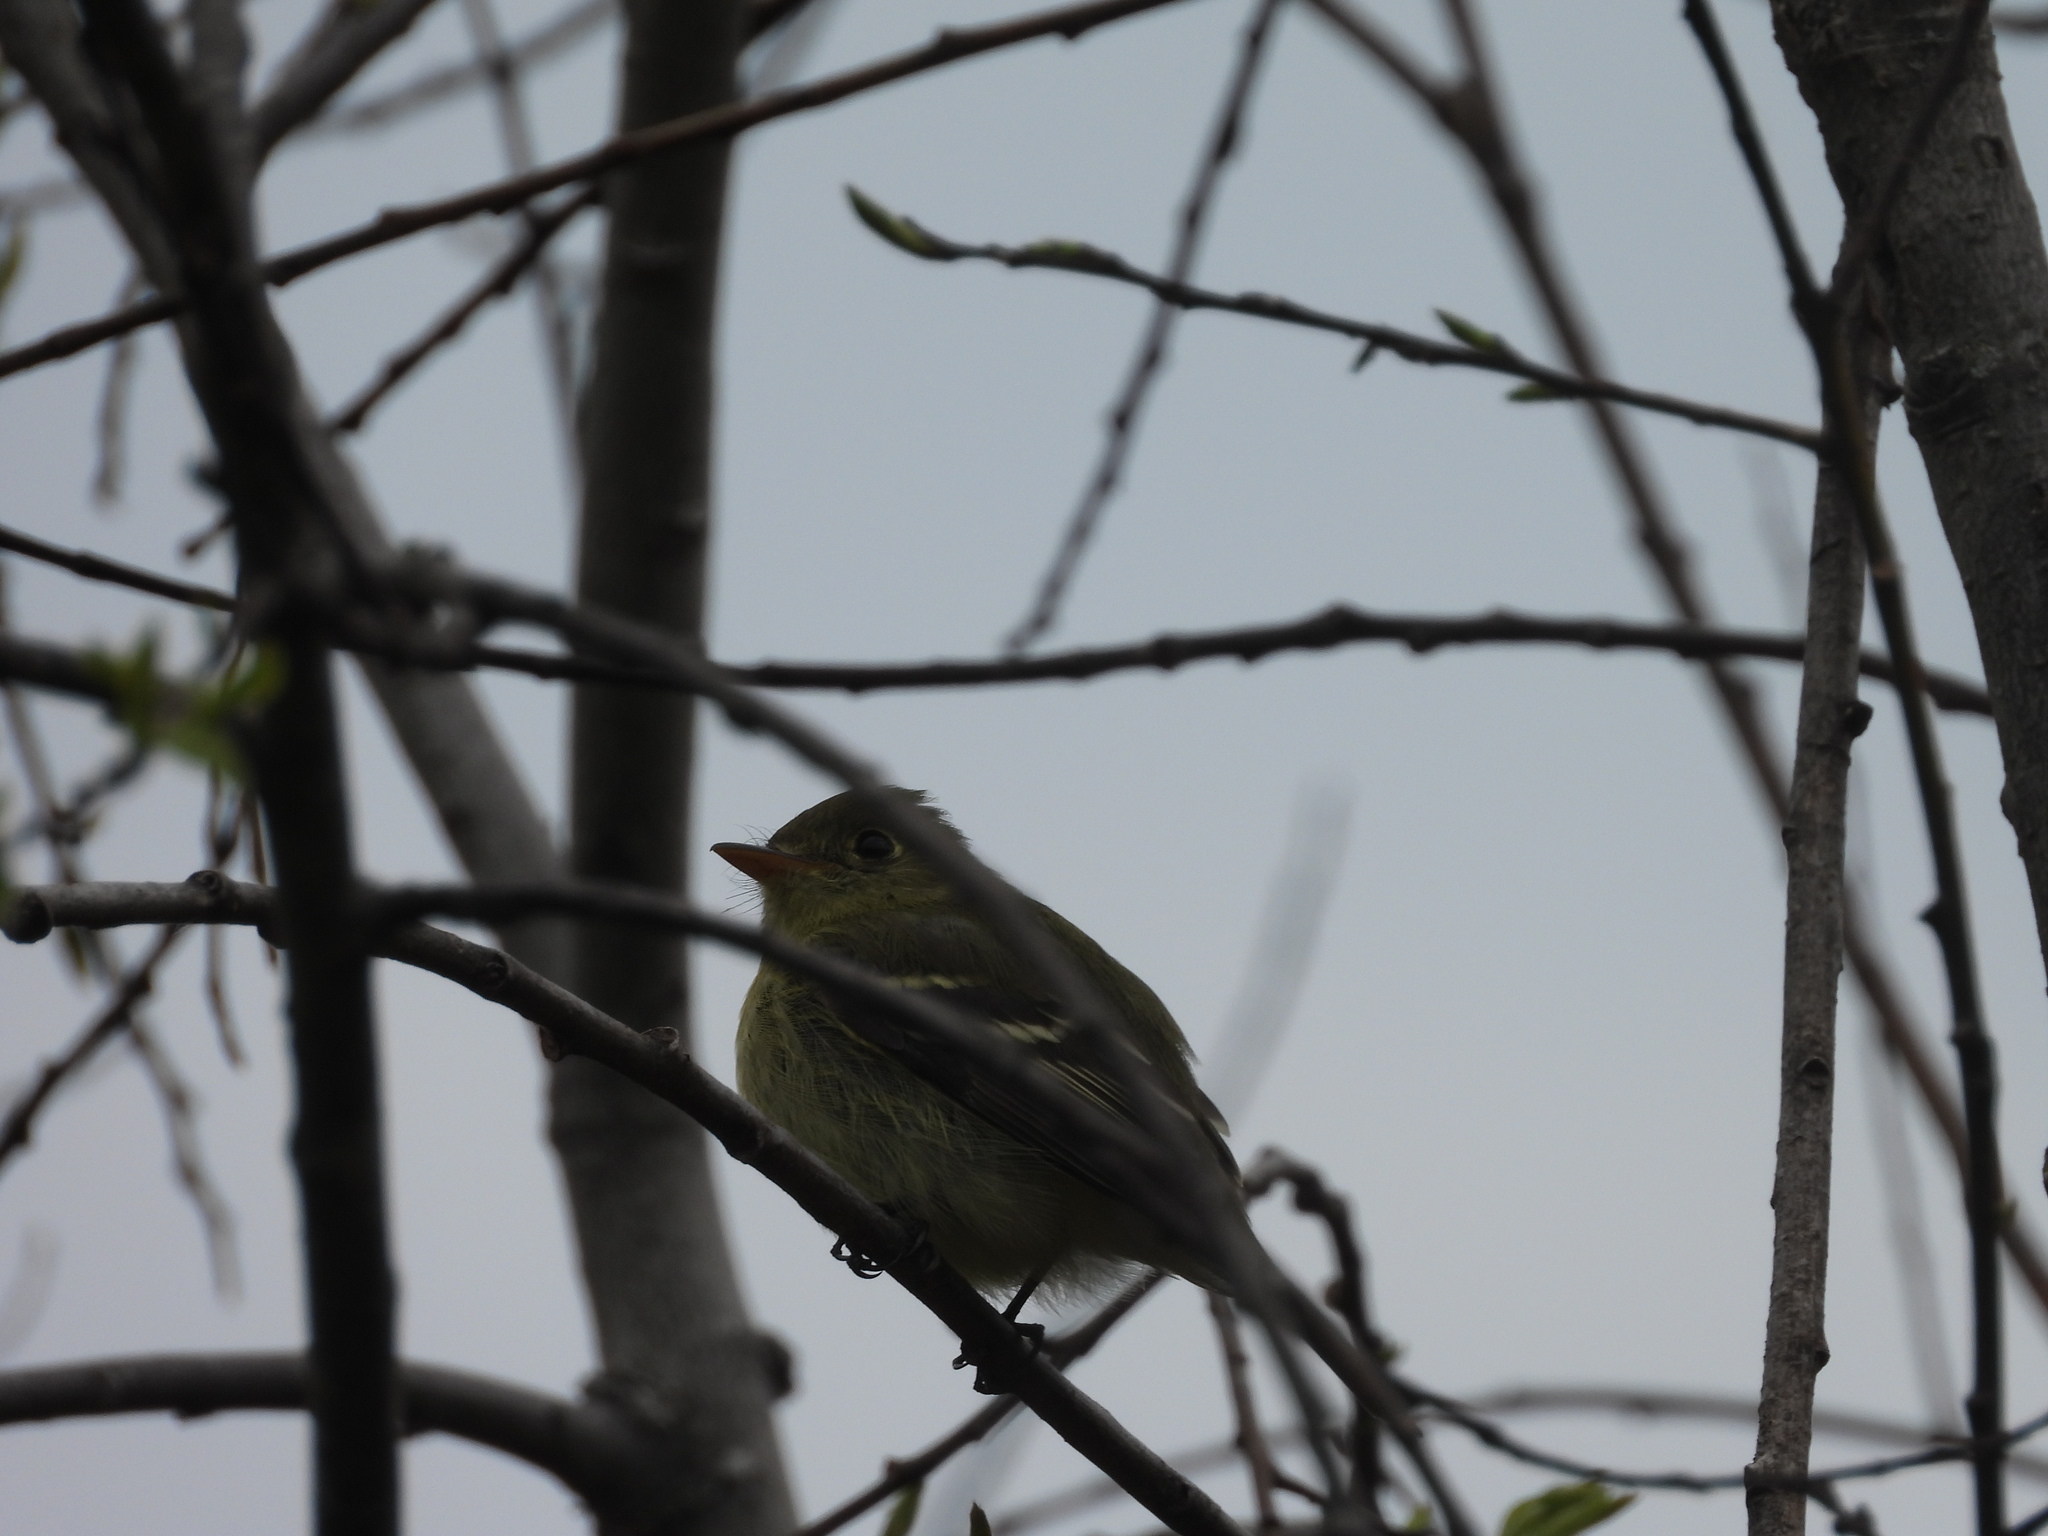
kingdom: Animalia
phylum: Chordata
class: Aves
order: Passeriformes
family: Tyrannidae
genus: Empidonax
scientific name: Empidonax flaviventris
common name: Yellow-bellied flycatcher
